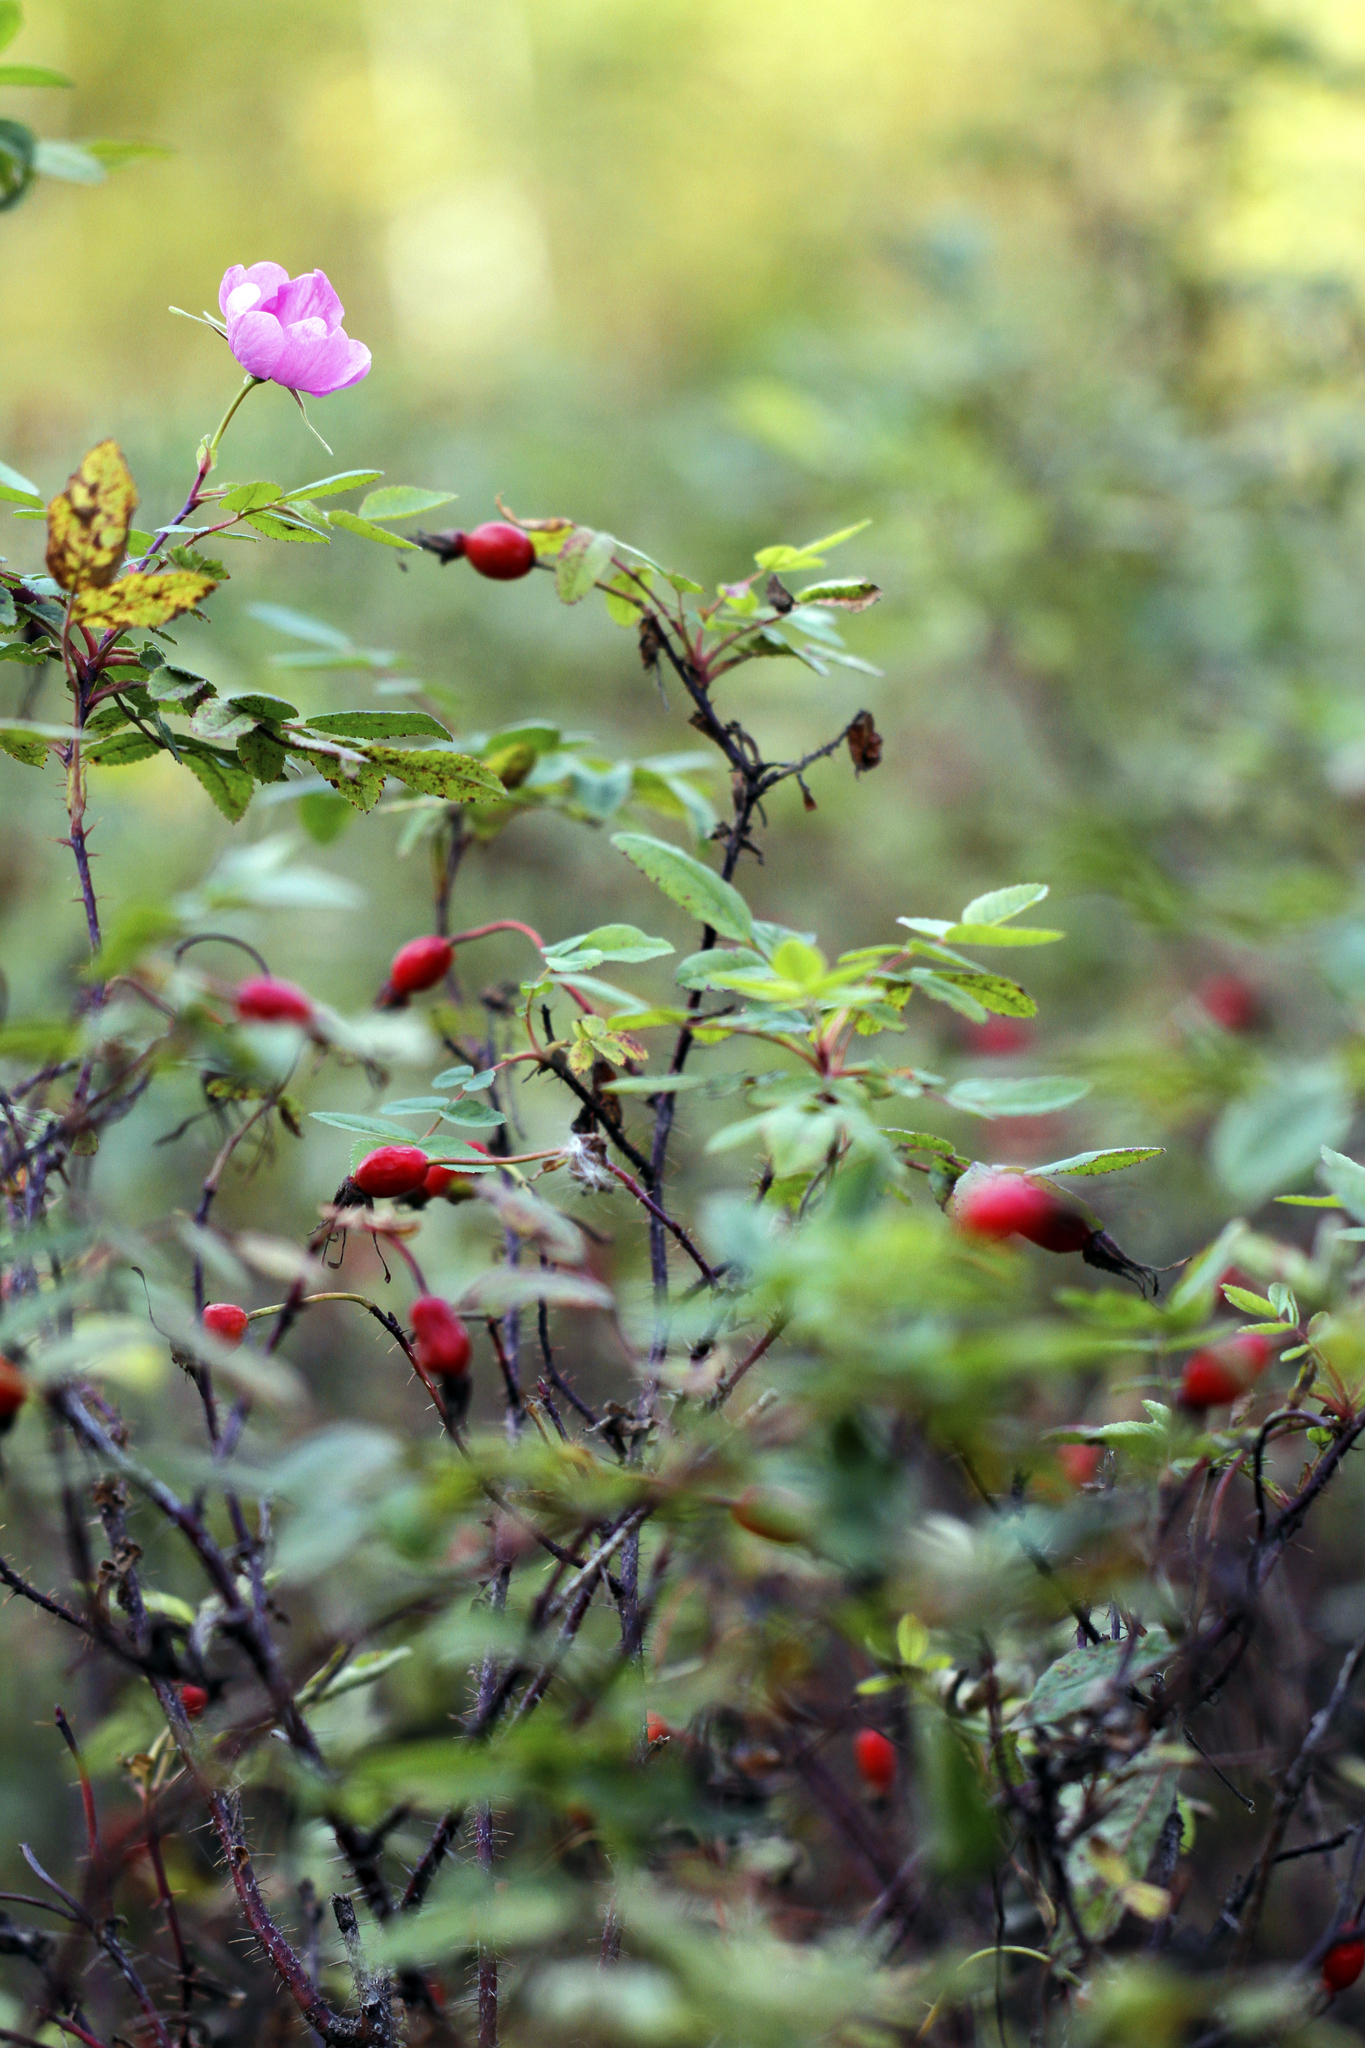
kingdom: Plantae
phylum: Tracheophyta
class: Magnoliopsida
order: Rosales
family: Rosaceae
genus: Rosa
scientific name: Rosa acicularis
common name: Prickly rose
